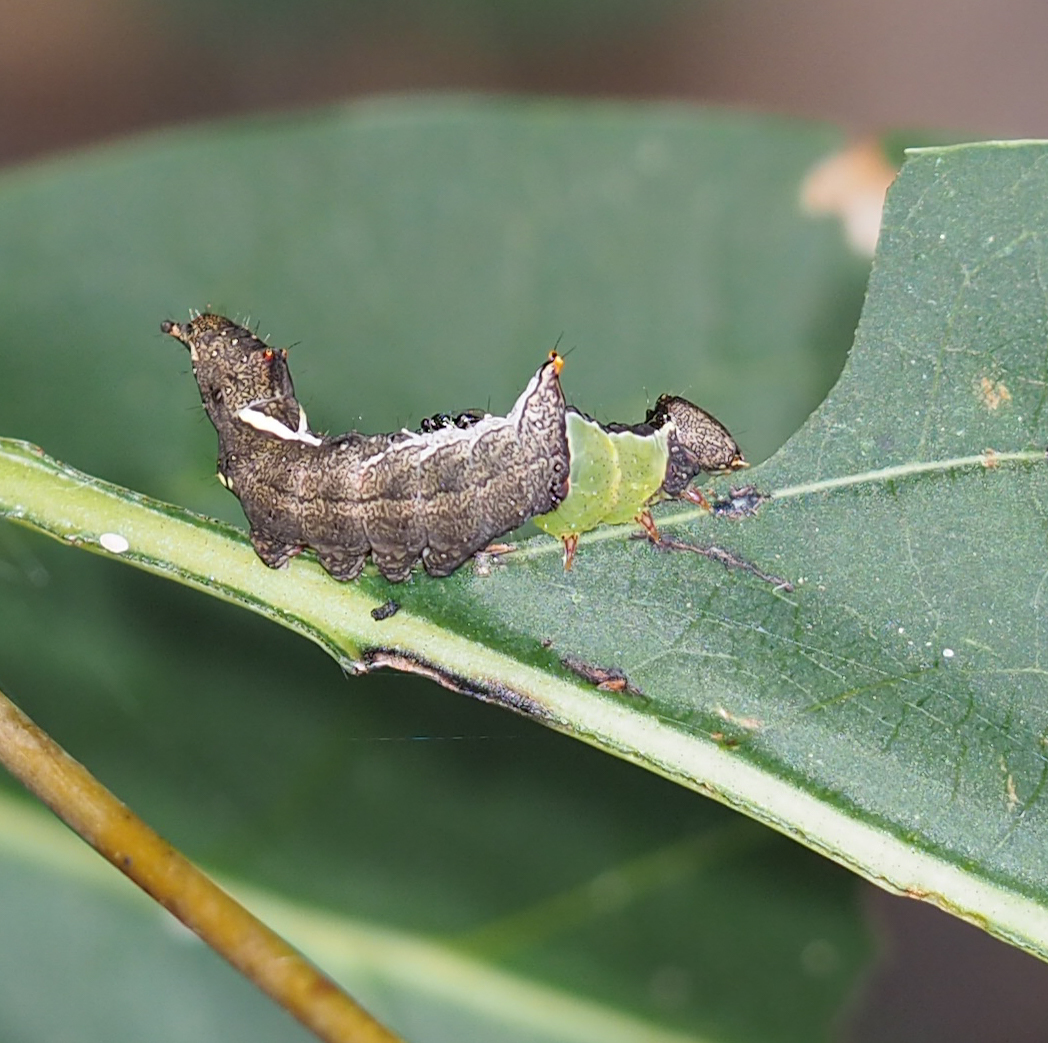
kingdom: Animalia
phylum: Arthropoda
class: Insecta
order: Lepidoptera
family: Notodontidae
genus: Schizura
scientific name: Schizura
